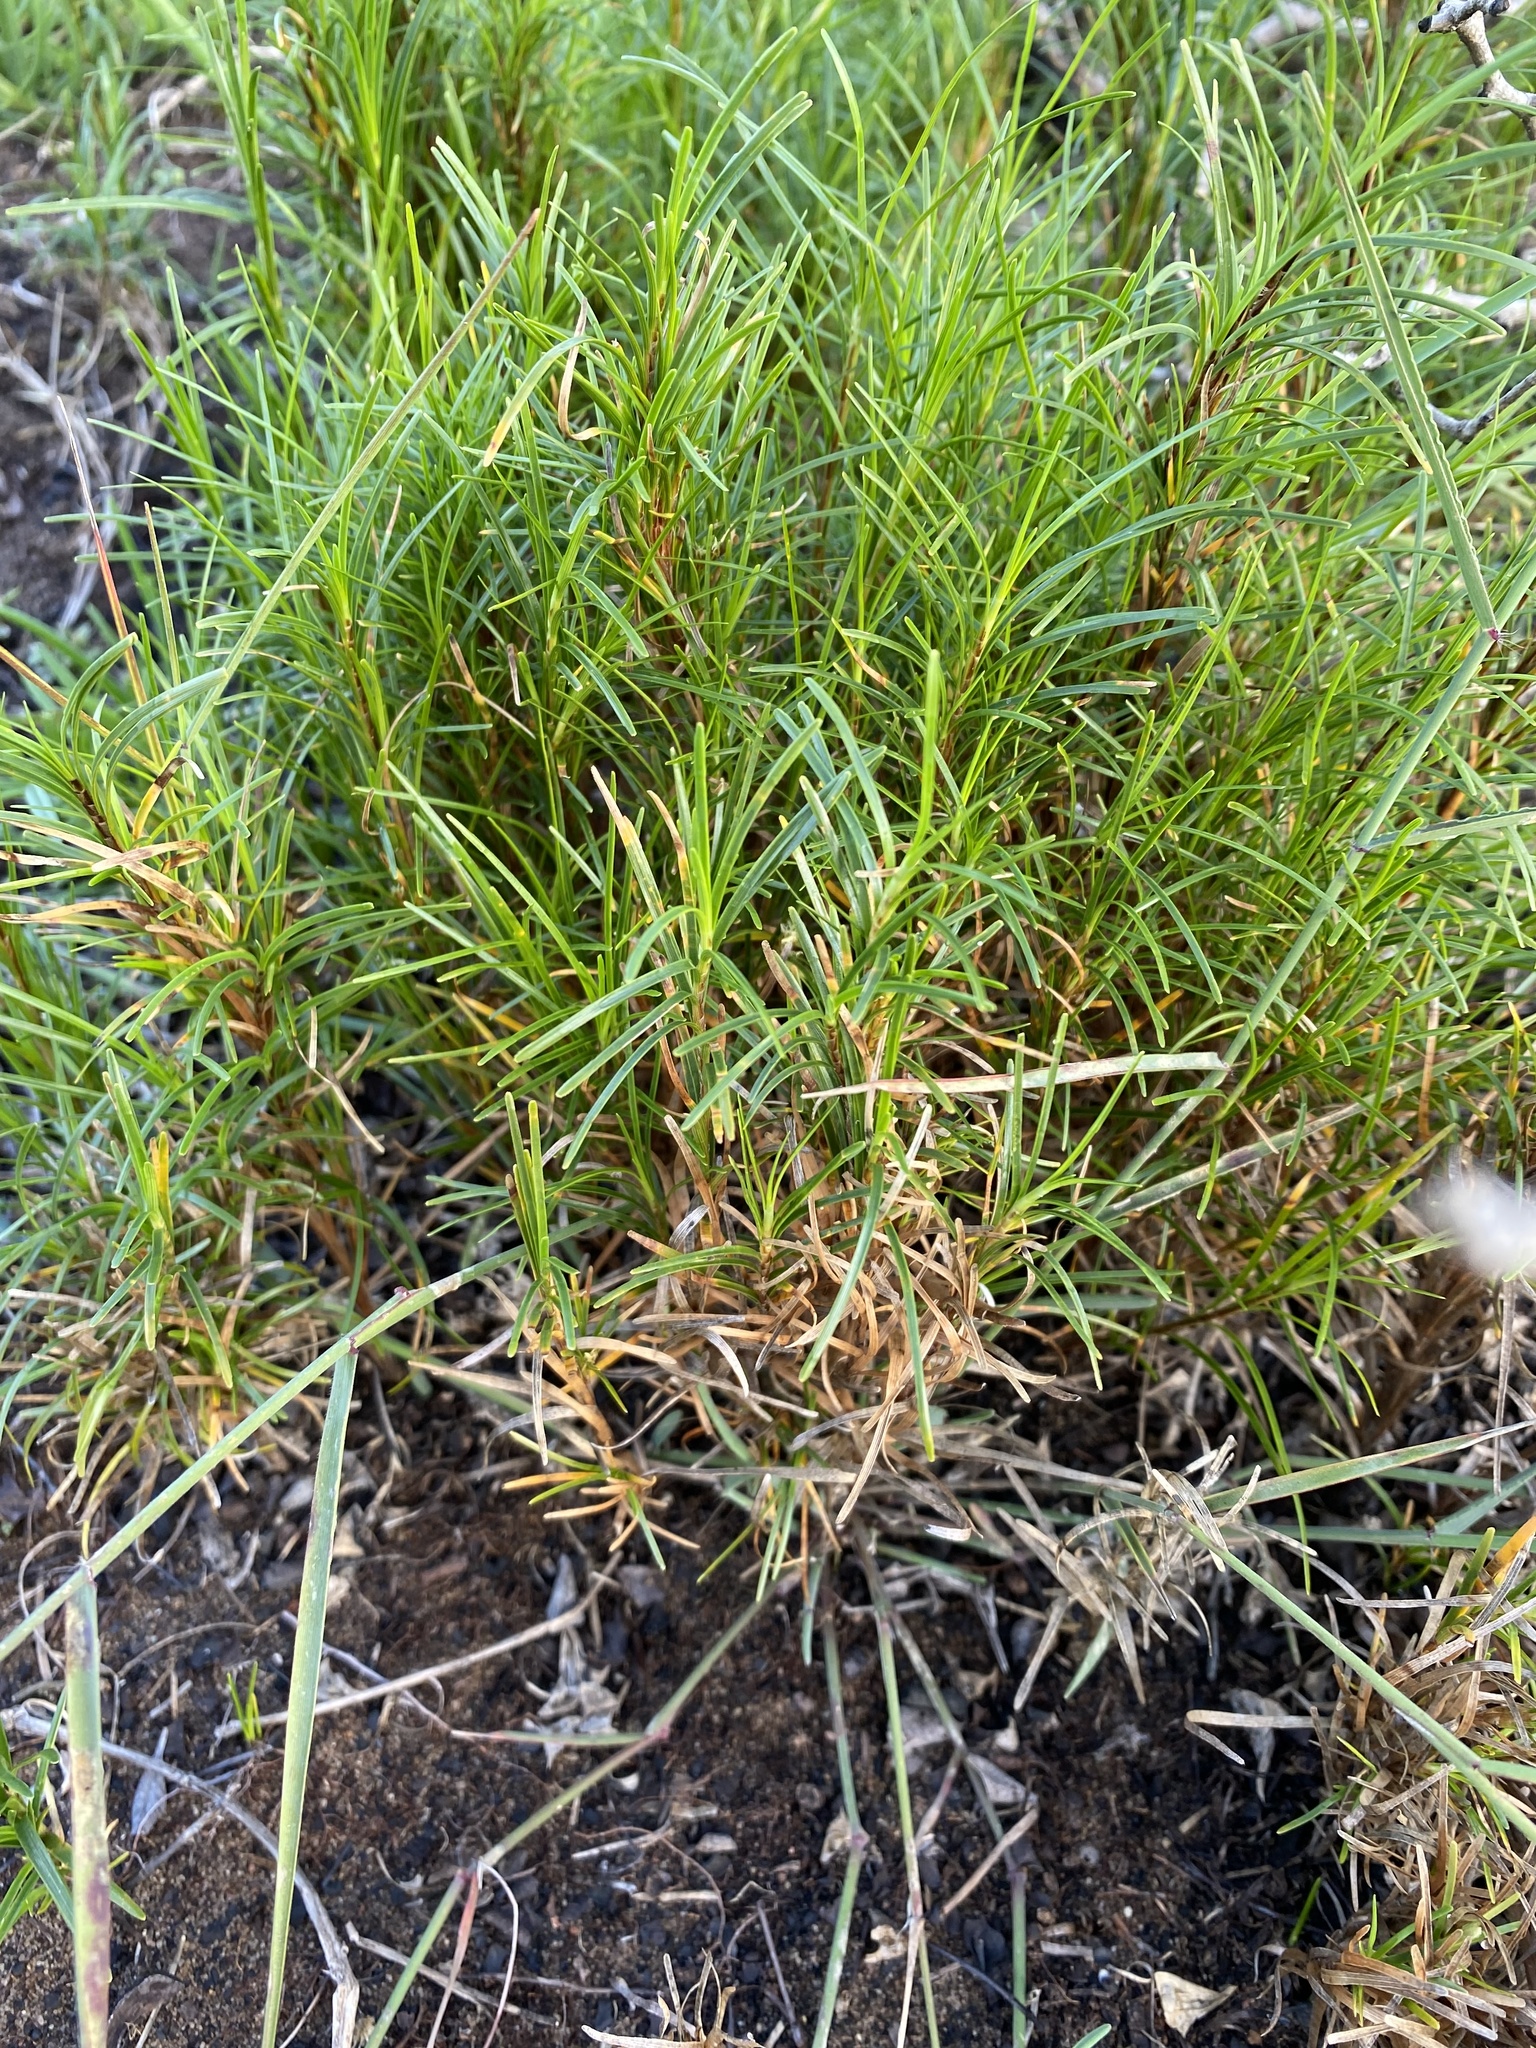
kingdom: Plantae
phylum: Tracheophyta
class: Liliopsida
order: Poales
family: Cyperaceae
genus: Ficinia
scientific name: Ficinia ramosissima
